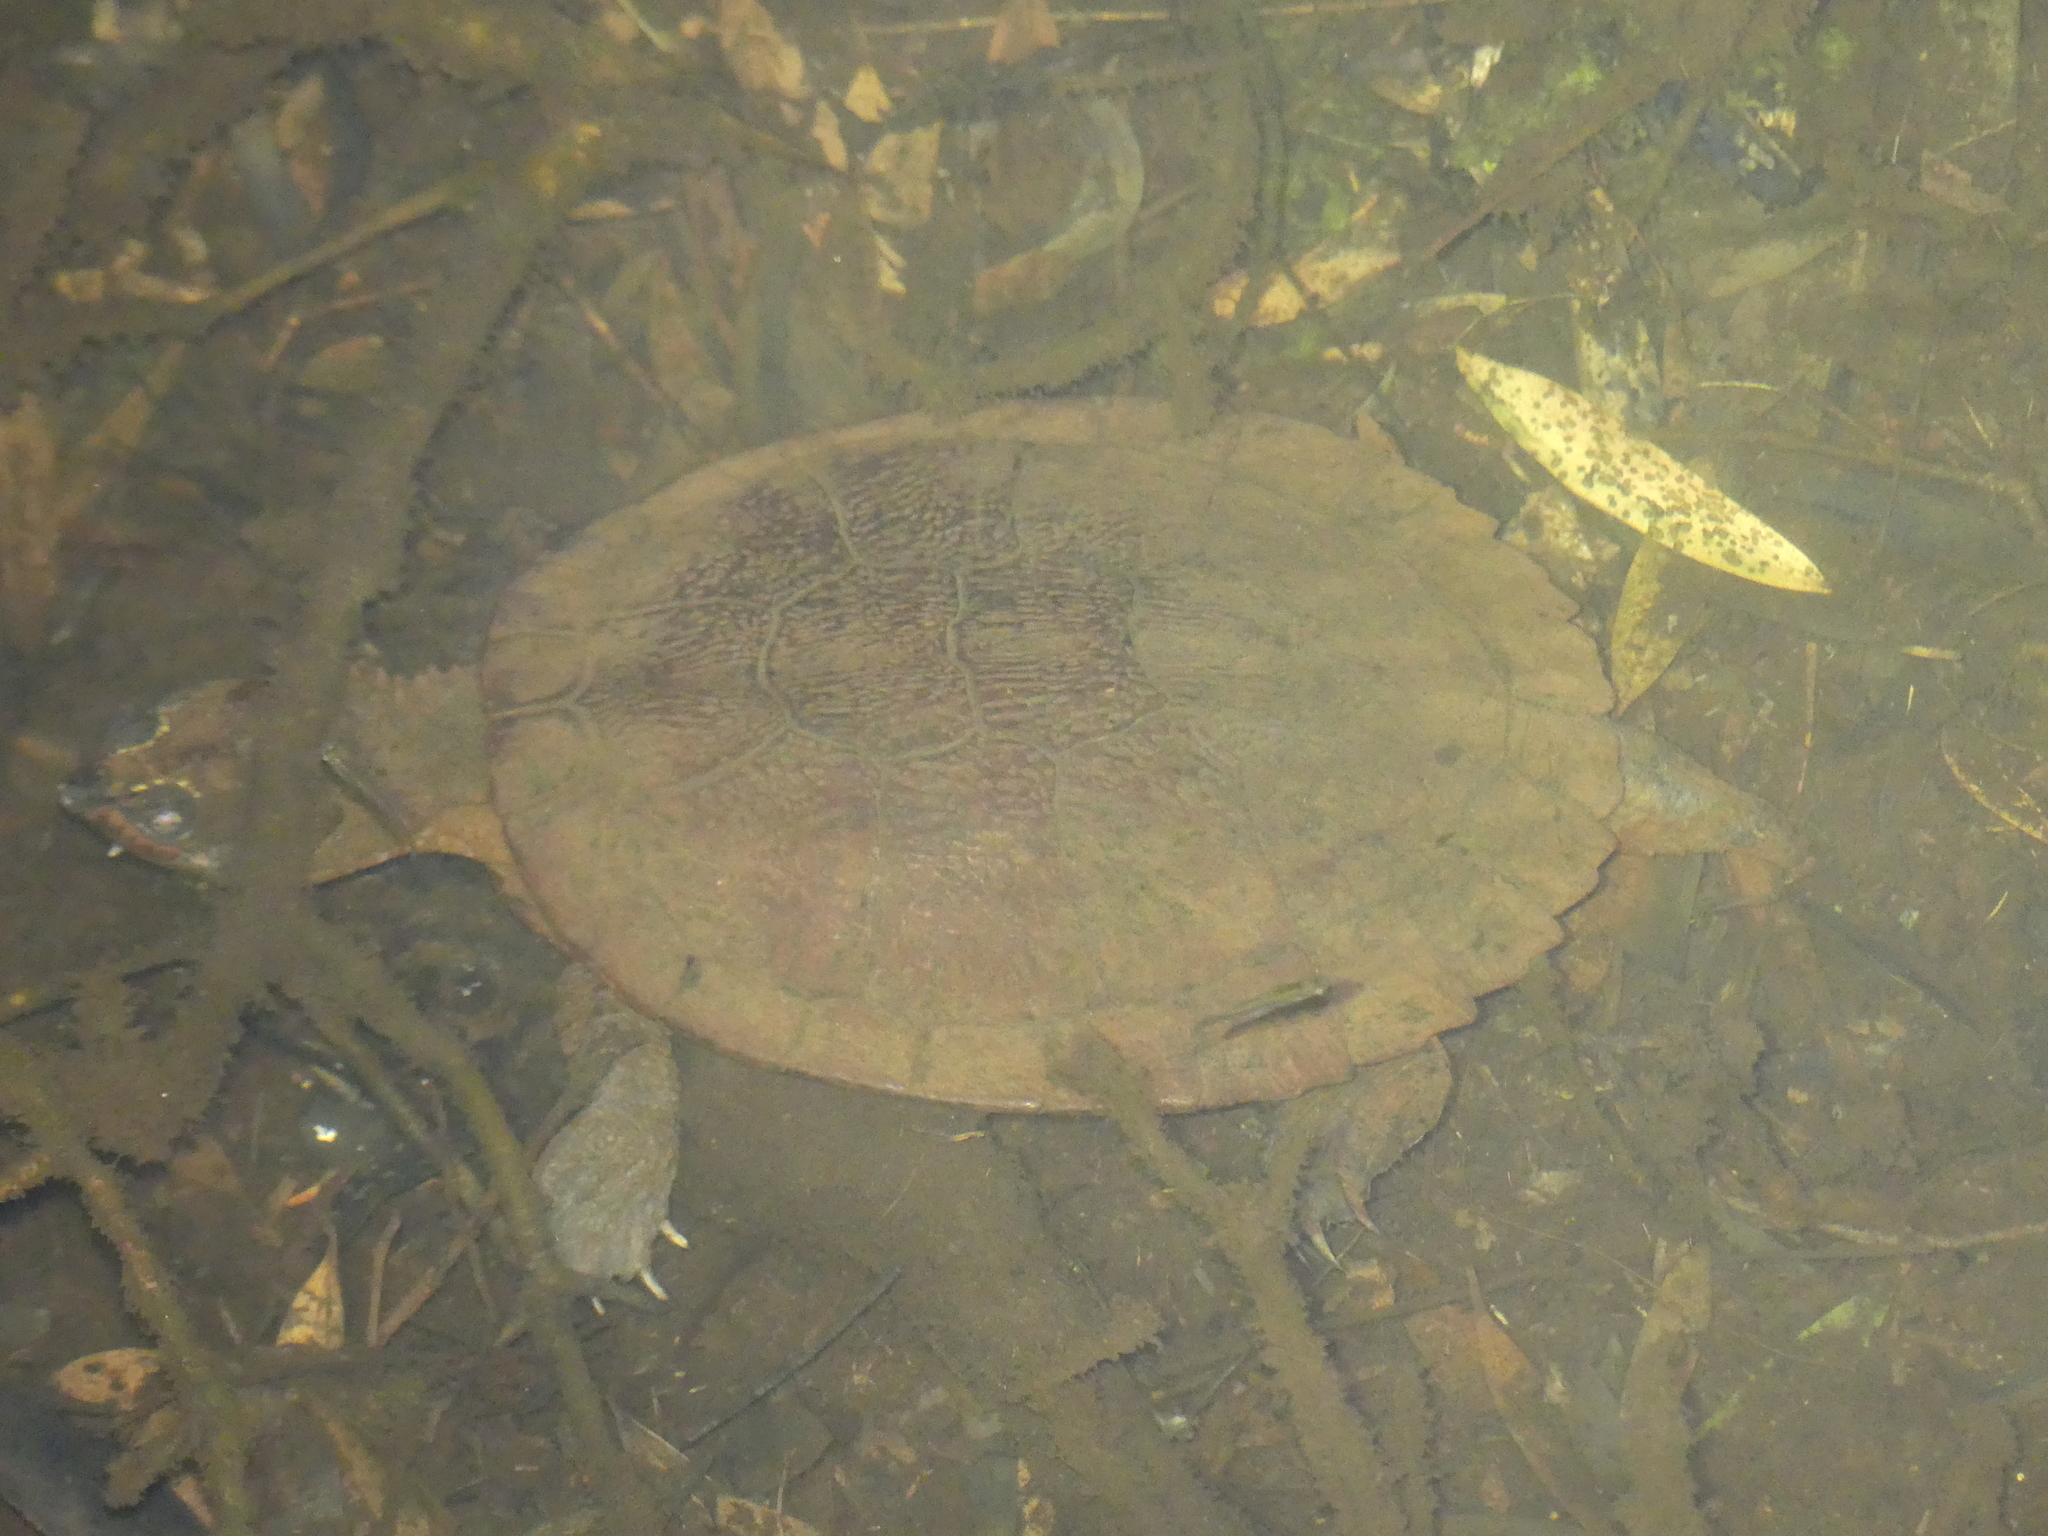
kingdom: Animalia
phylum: Chordata
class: Testudines
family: Chelidae
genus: Myuchelys
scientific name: Myuchelys latisternum
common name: Serrated snapping turtle
